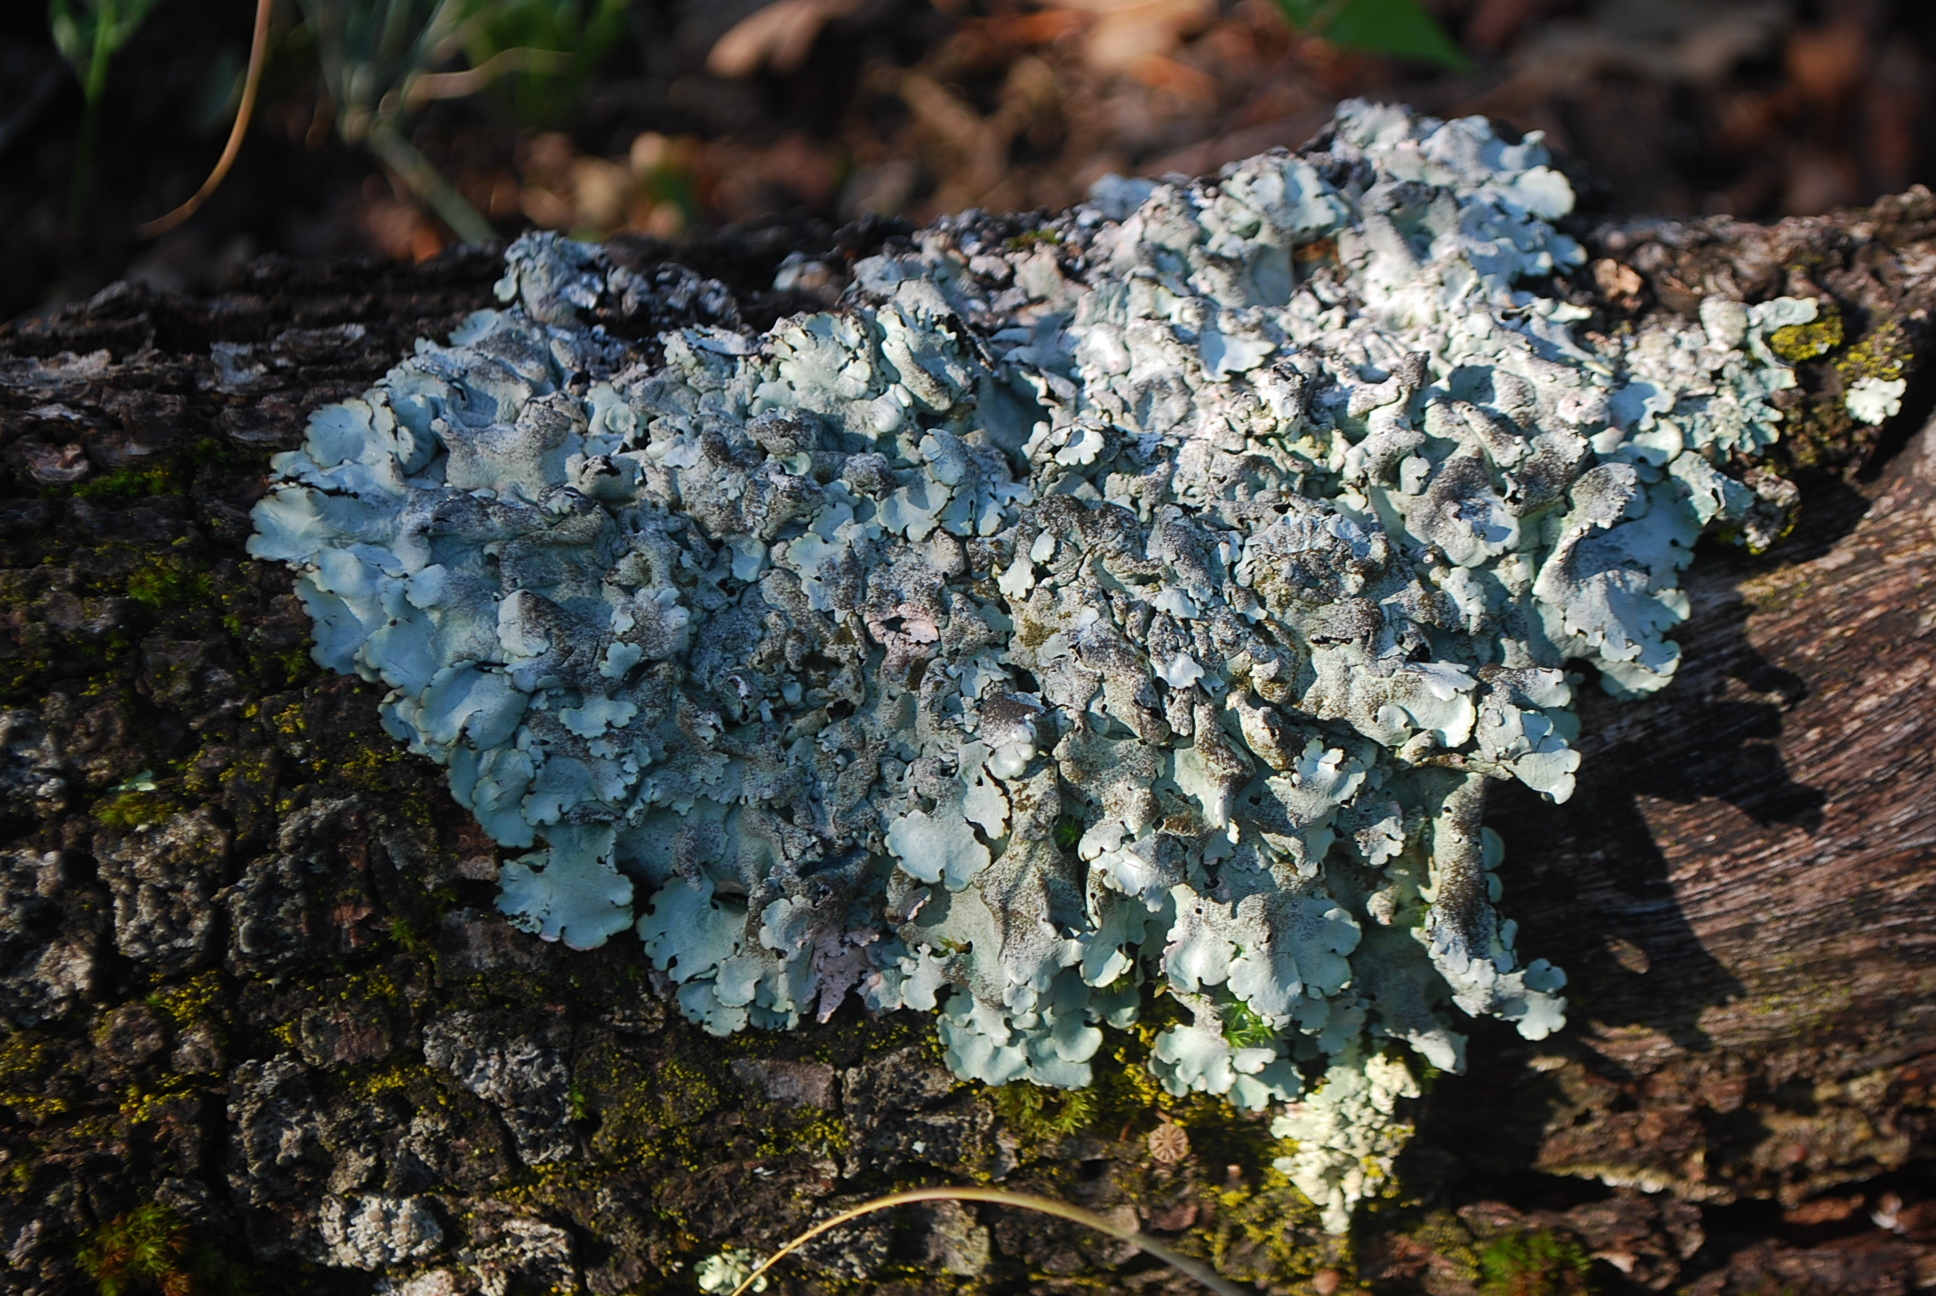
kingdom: Fungi
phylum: Ascomycota
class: Lecanoromycetes
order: Lecanorales
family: Parmeliaceae
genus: Parmelina
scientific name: Parmelina tiliacea
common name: Linden shield lichen
